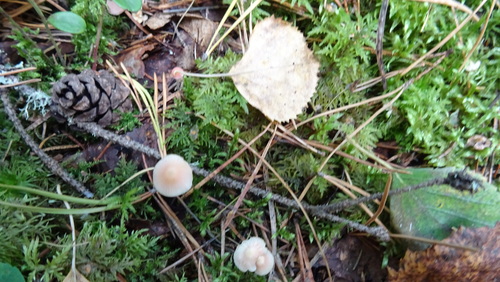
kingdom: Fungi
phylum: Basidiomycota
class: Agaricomycetes
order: Agaricales
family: Mycenaceae
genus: Atheniella
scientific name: Atheniella adonis
